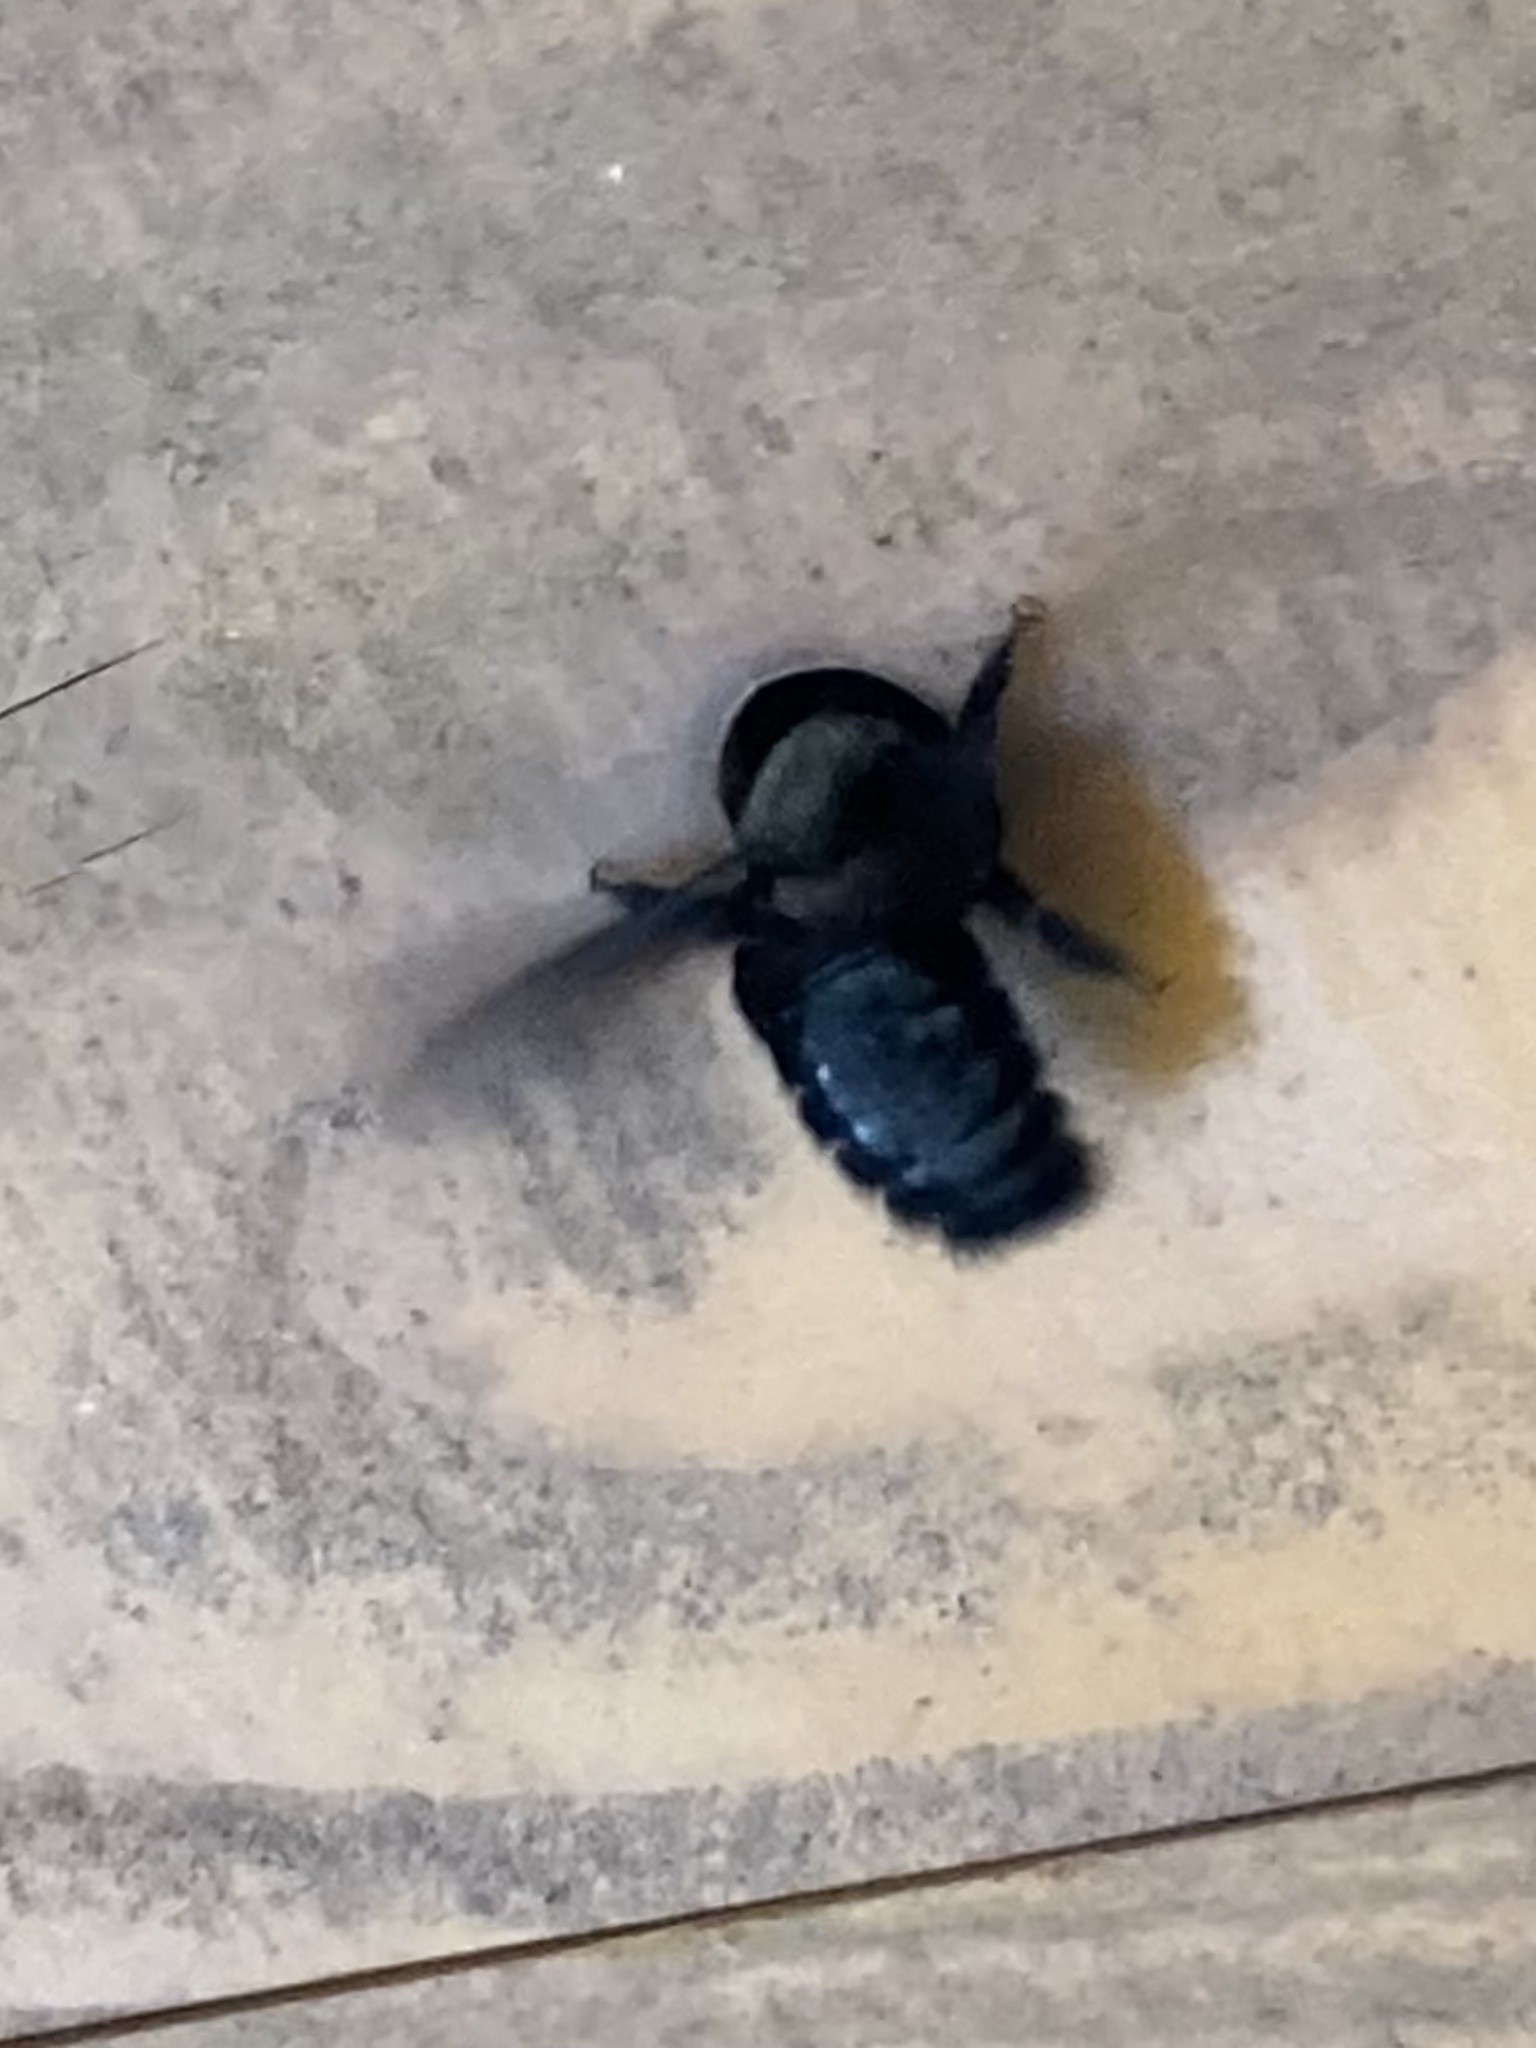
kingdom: Animalia
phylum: Arthropoda
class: Insecta
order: Hymenoptera
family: Apidae
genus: Xylocopa
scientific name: Xylocopa violacea
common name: Violet carpenter bee
